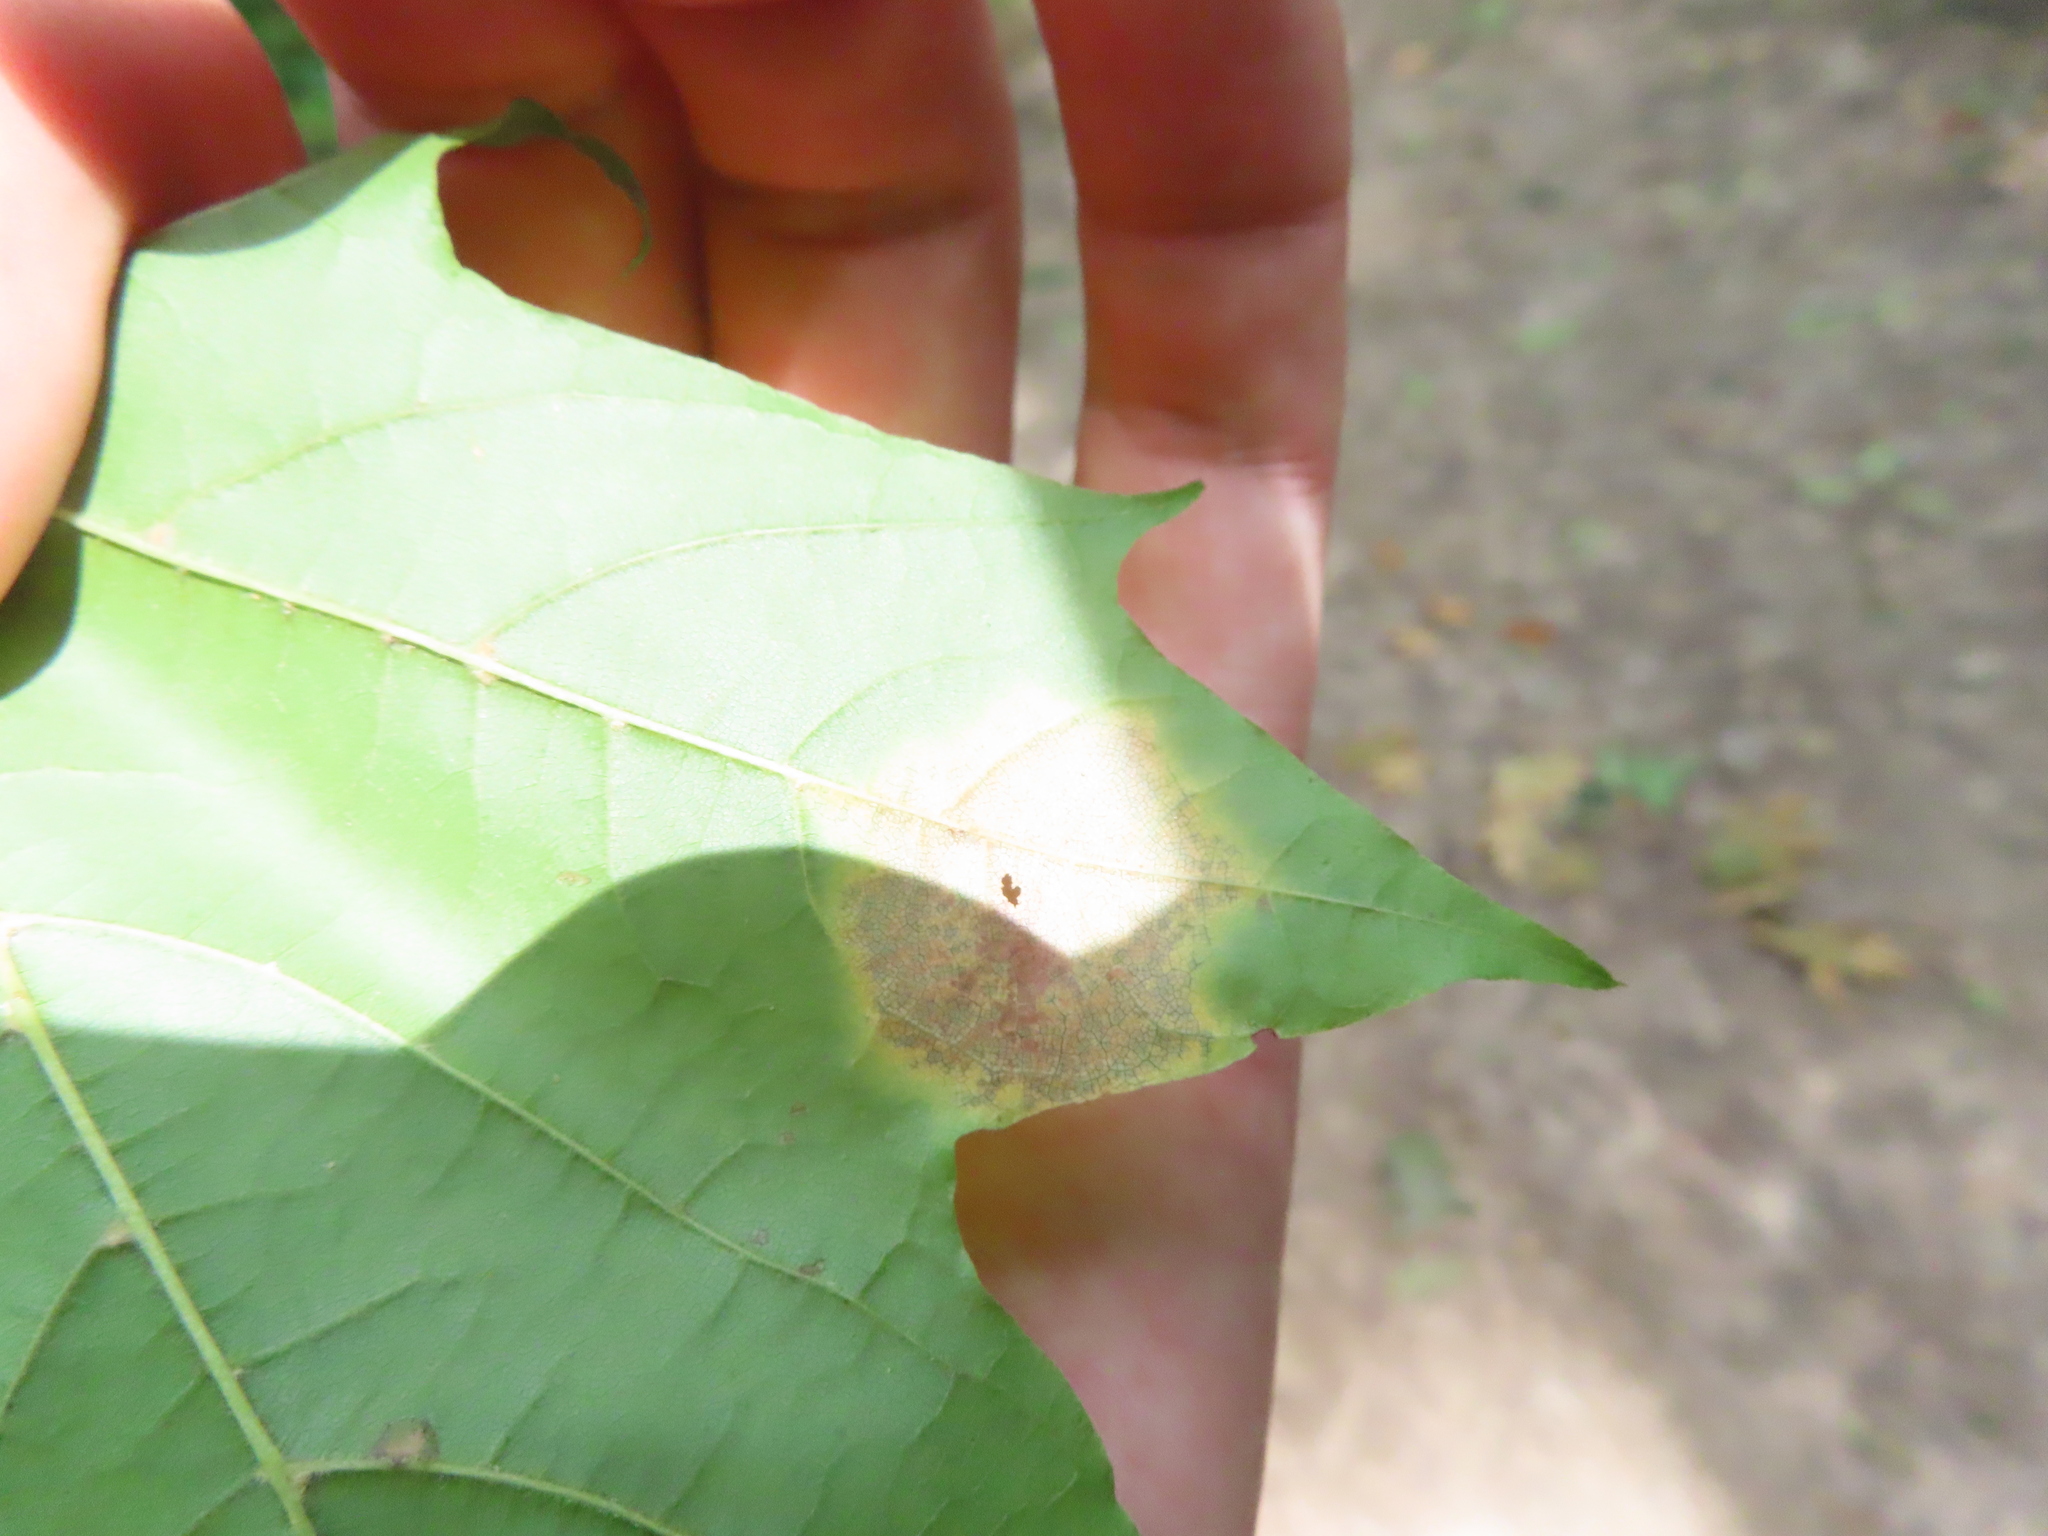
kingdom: Fungi
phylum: Ascomycota
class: Leotiomycetes
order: Rhytismatales
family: Rhytismataceae
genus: Rhytisma
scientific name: Rhytisma acerinum
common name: European tar spot
